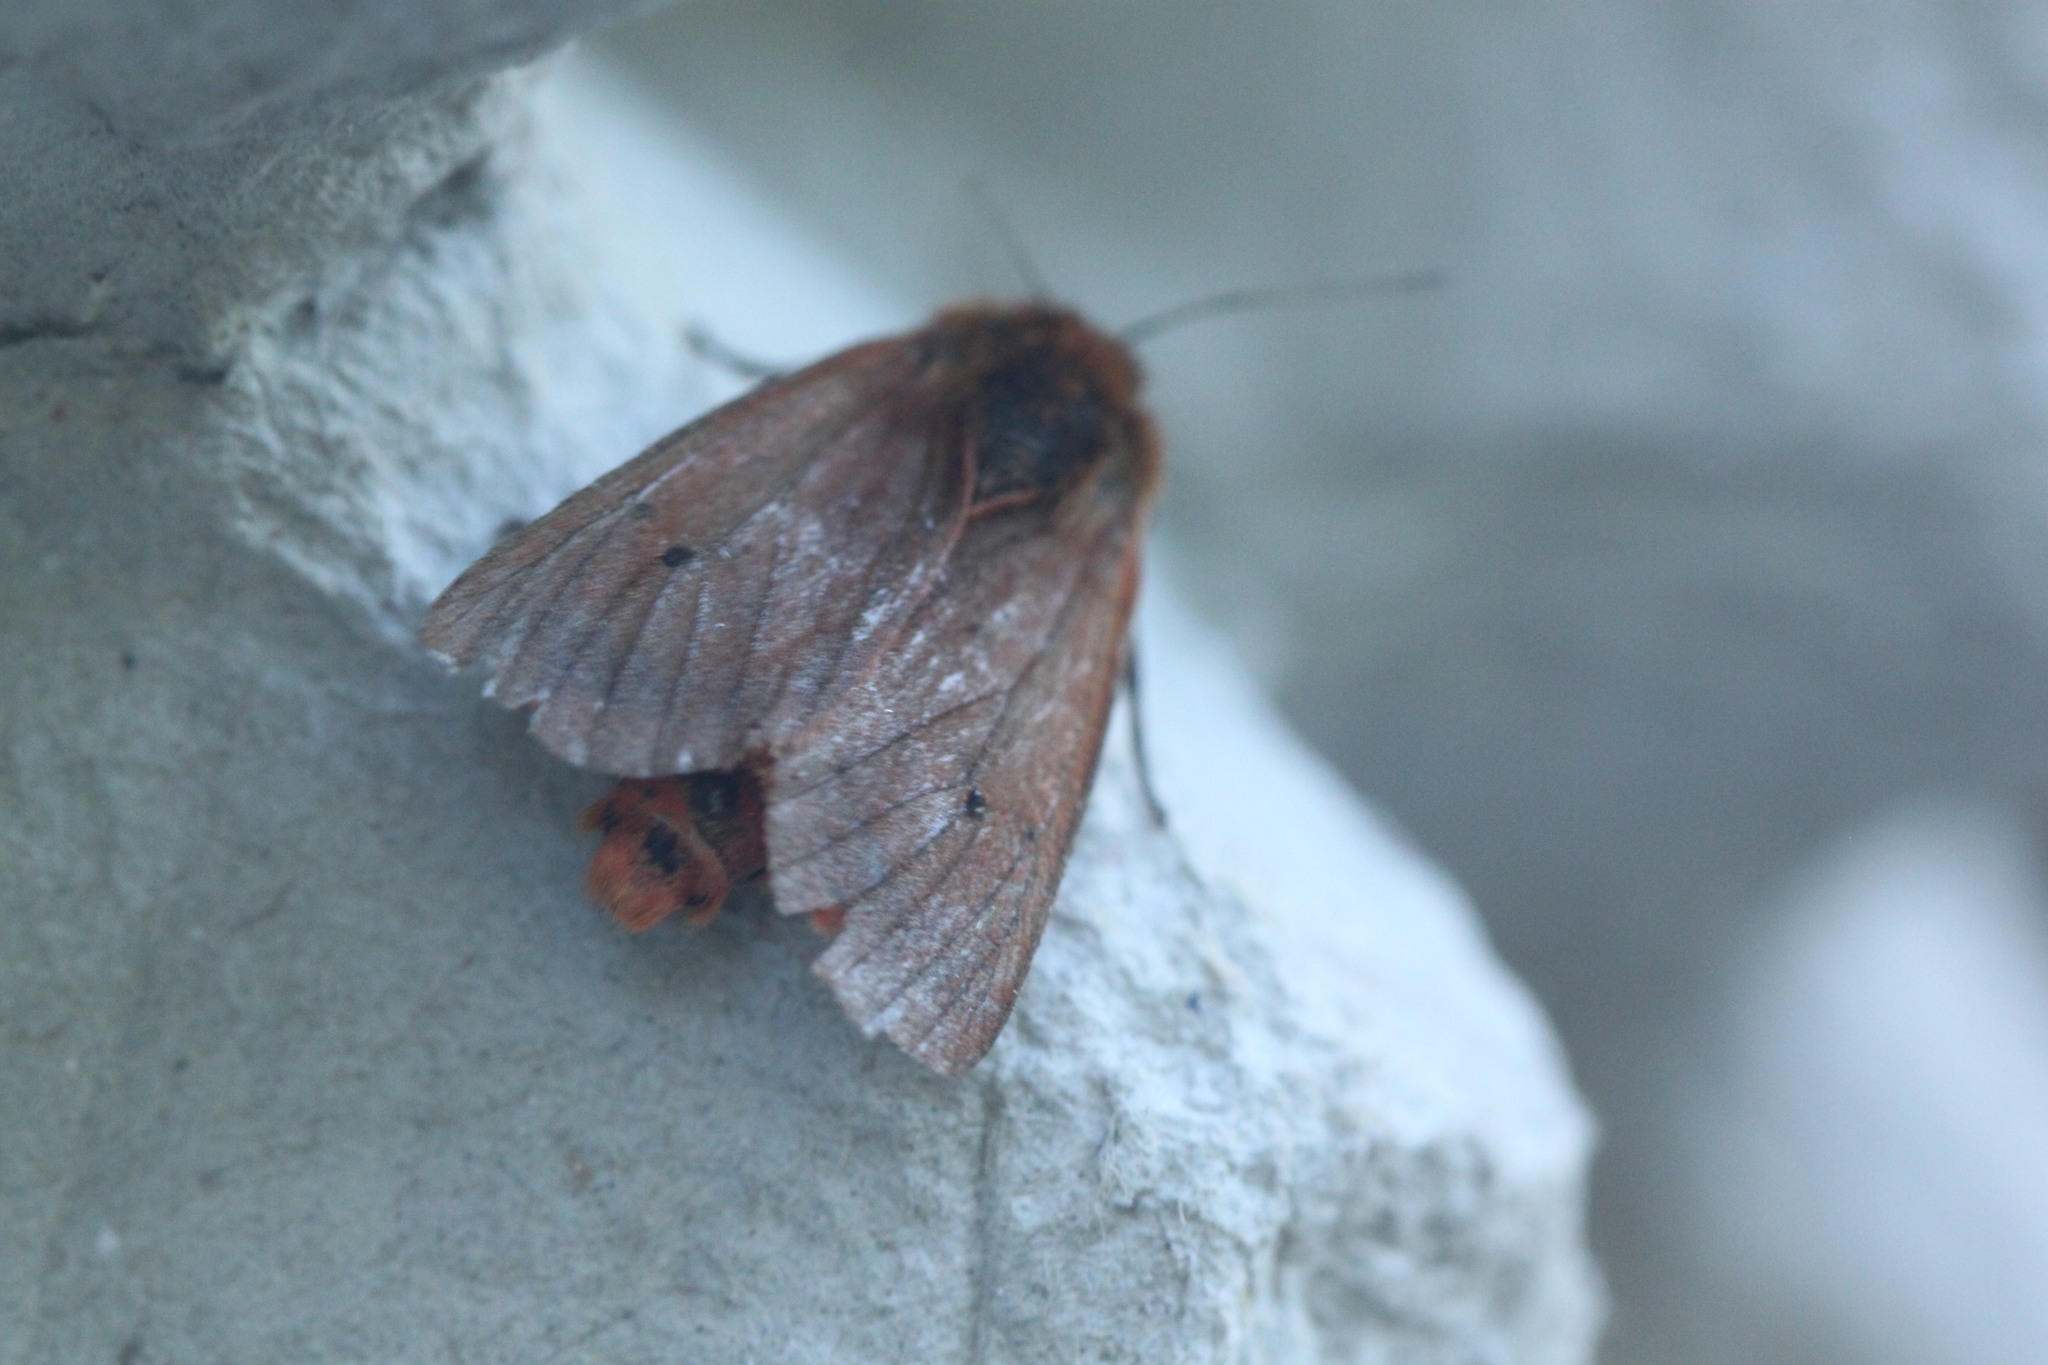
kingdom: Animalia
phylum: Arthropoda
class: Insecta
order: Lepidoptera
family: Erebidae
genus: Phragmatobia
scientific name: Phragmatobia fuliginosa
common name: Ruby tiger
